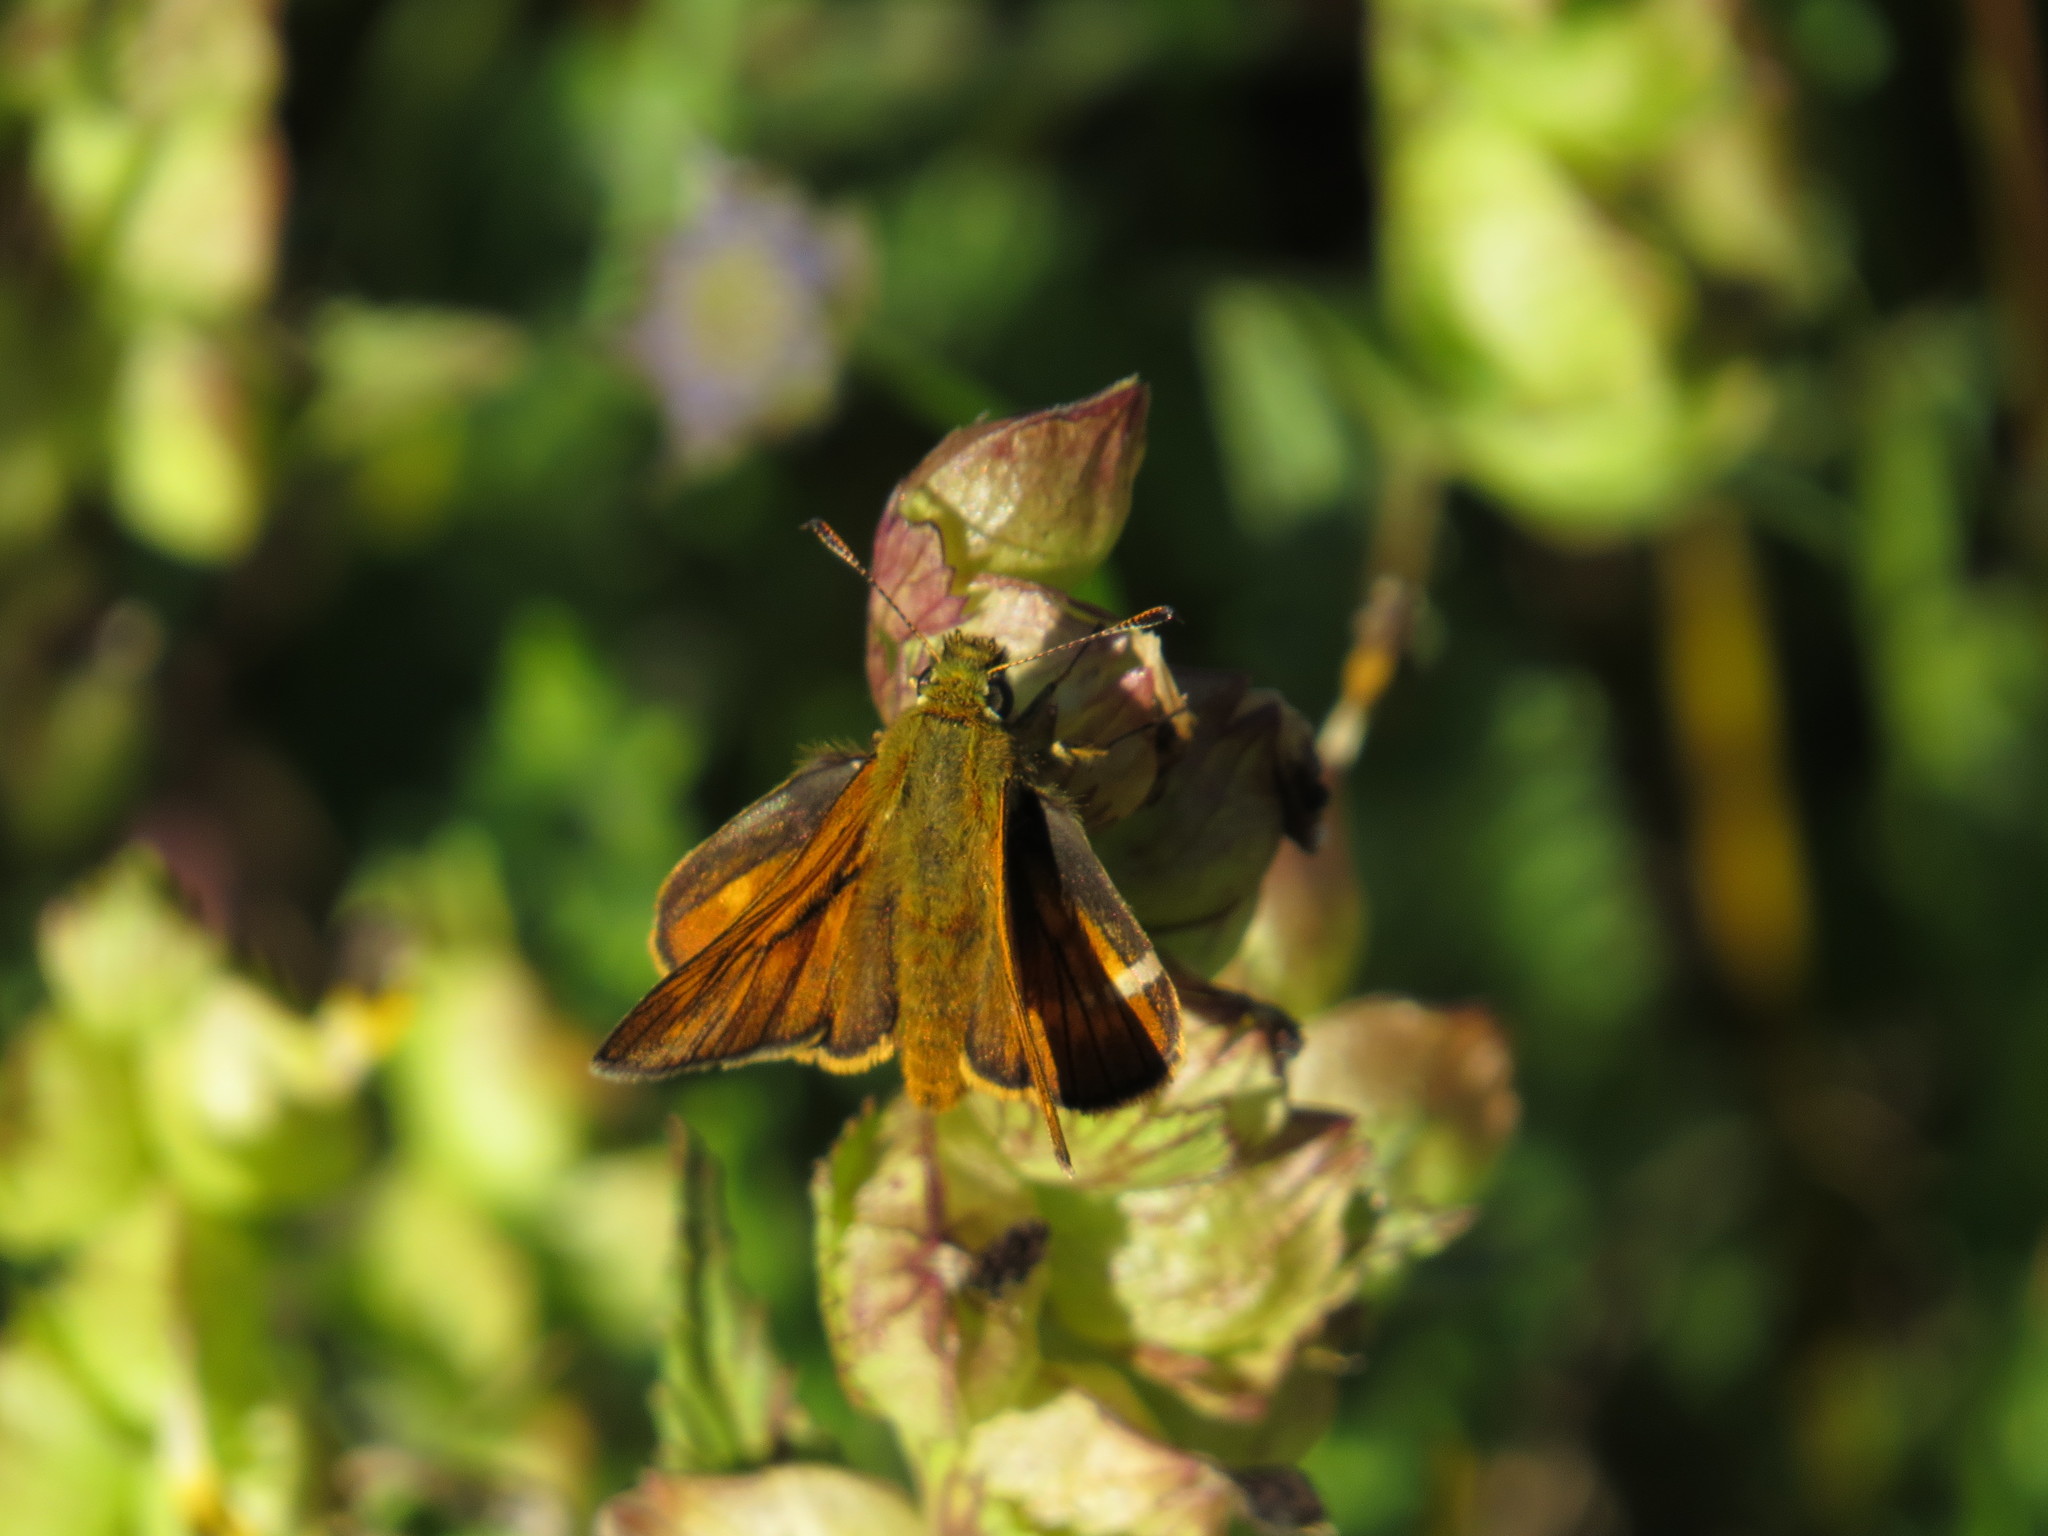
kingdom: Animalia
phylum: Arthropoda
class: Insecta
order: Lepidoptera
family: Hesperiidae
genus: Ochlodes
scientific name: Ochlodes venata
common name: Large skipper
